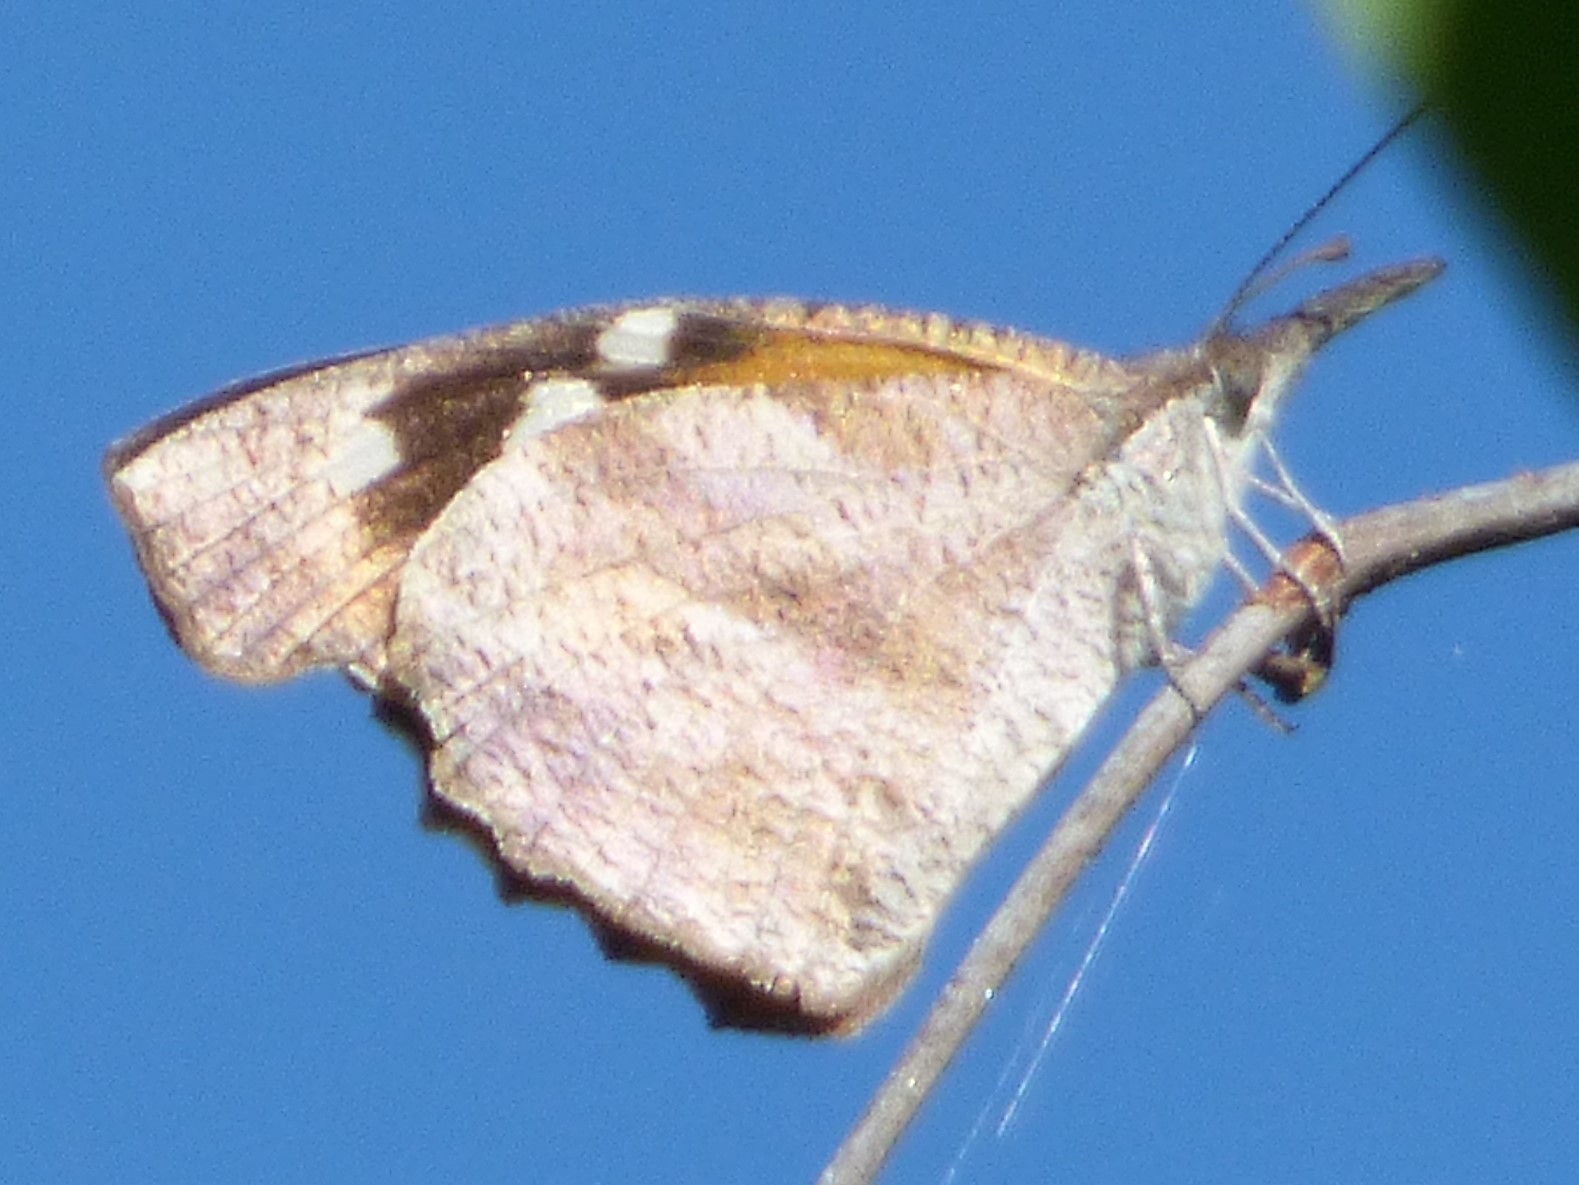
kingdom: Animalia
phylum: Arthropoda
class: Insecta
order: Lepidoptera
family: Nymphalidae
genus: Libytheana
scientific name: Libytheana carinenta
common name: American snout
